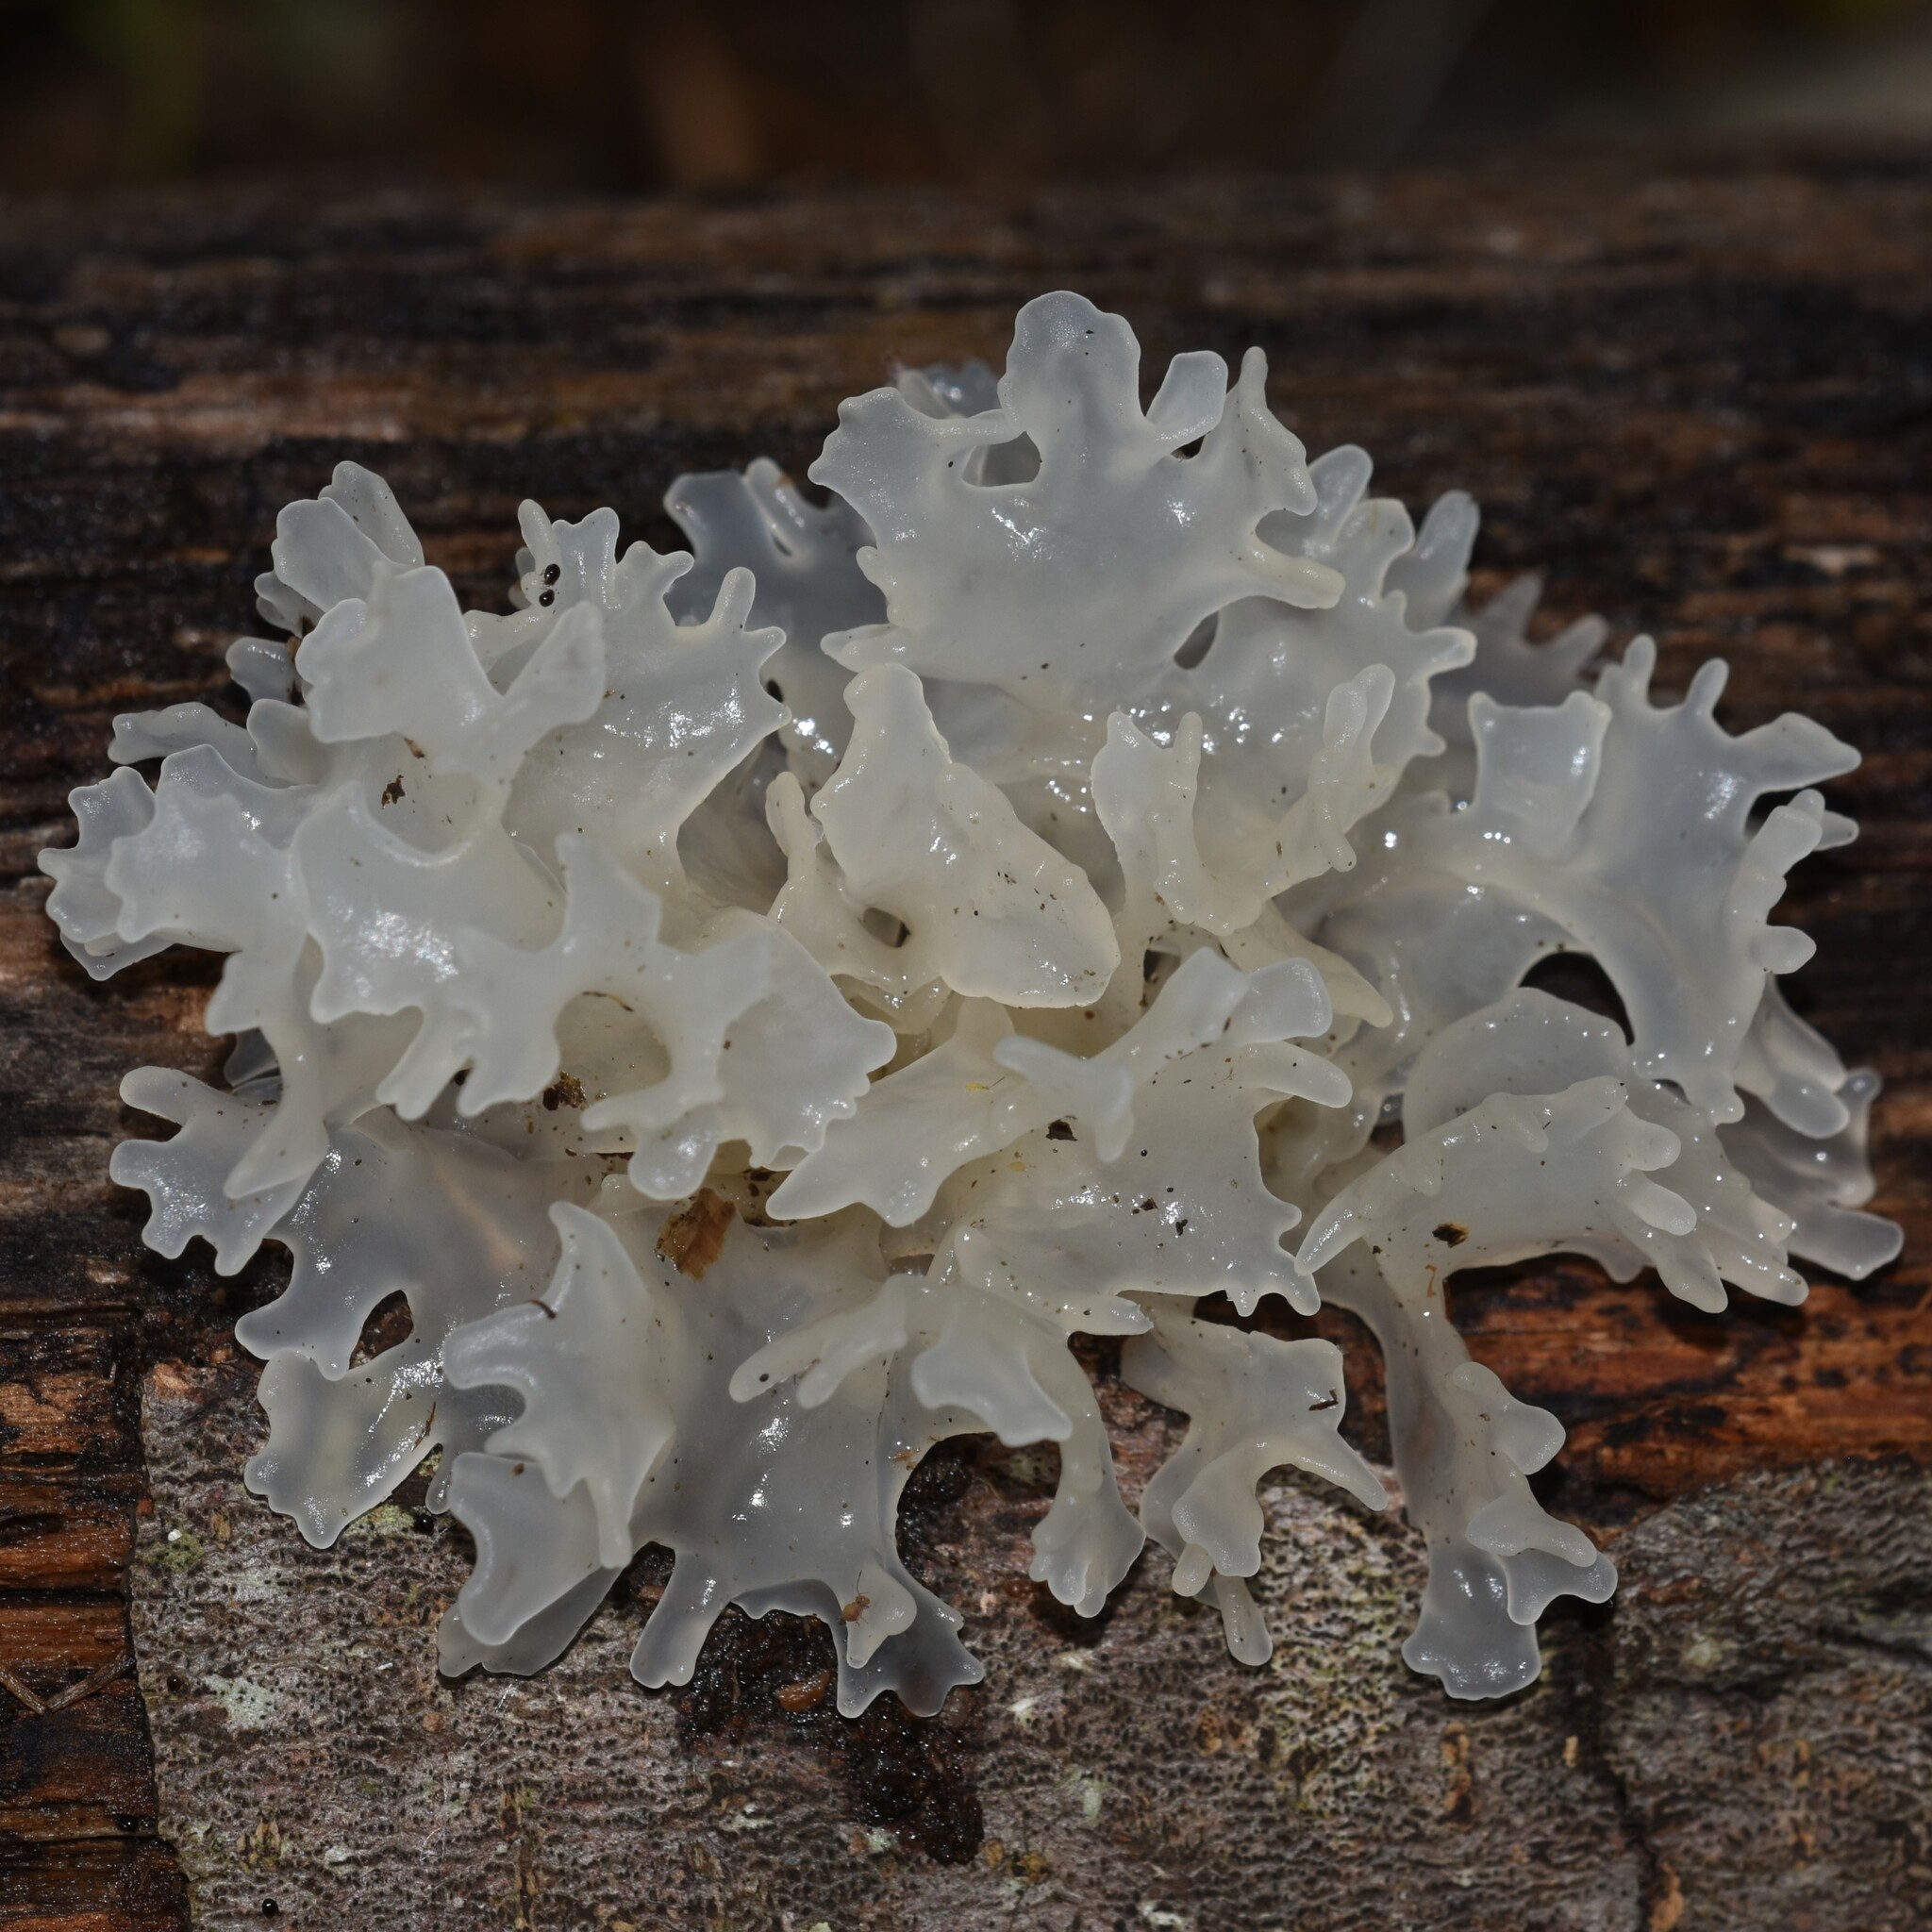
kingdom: Fungi
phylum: Basidiomycota
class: Tremellomycetes
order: Tremellales
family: Tremellaceae
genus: Tremella
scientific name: Tremella fuciformis
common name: Snow fungus
